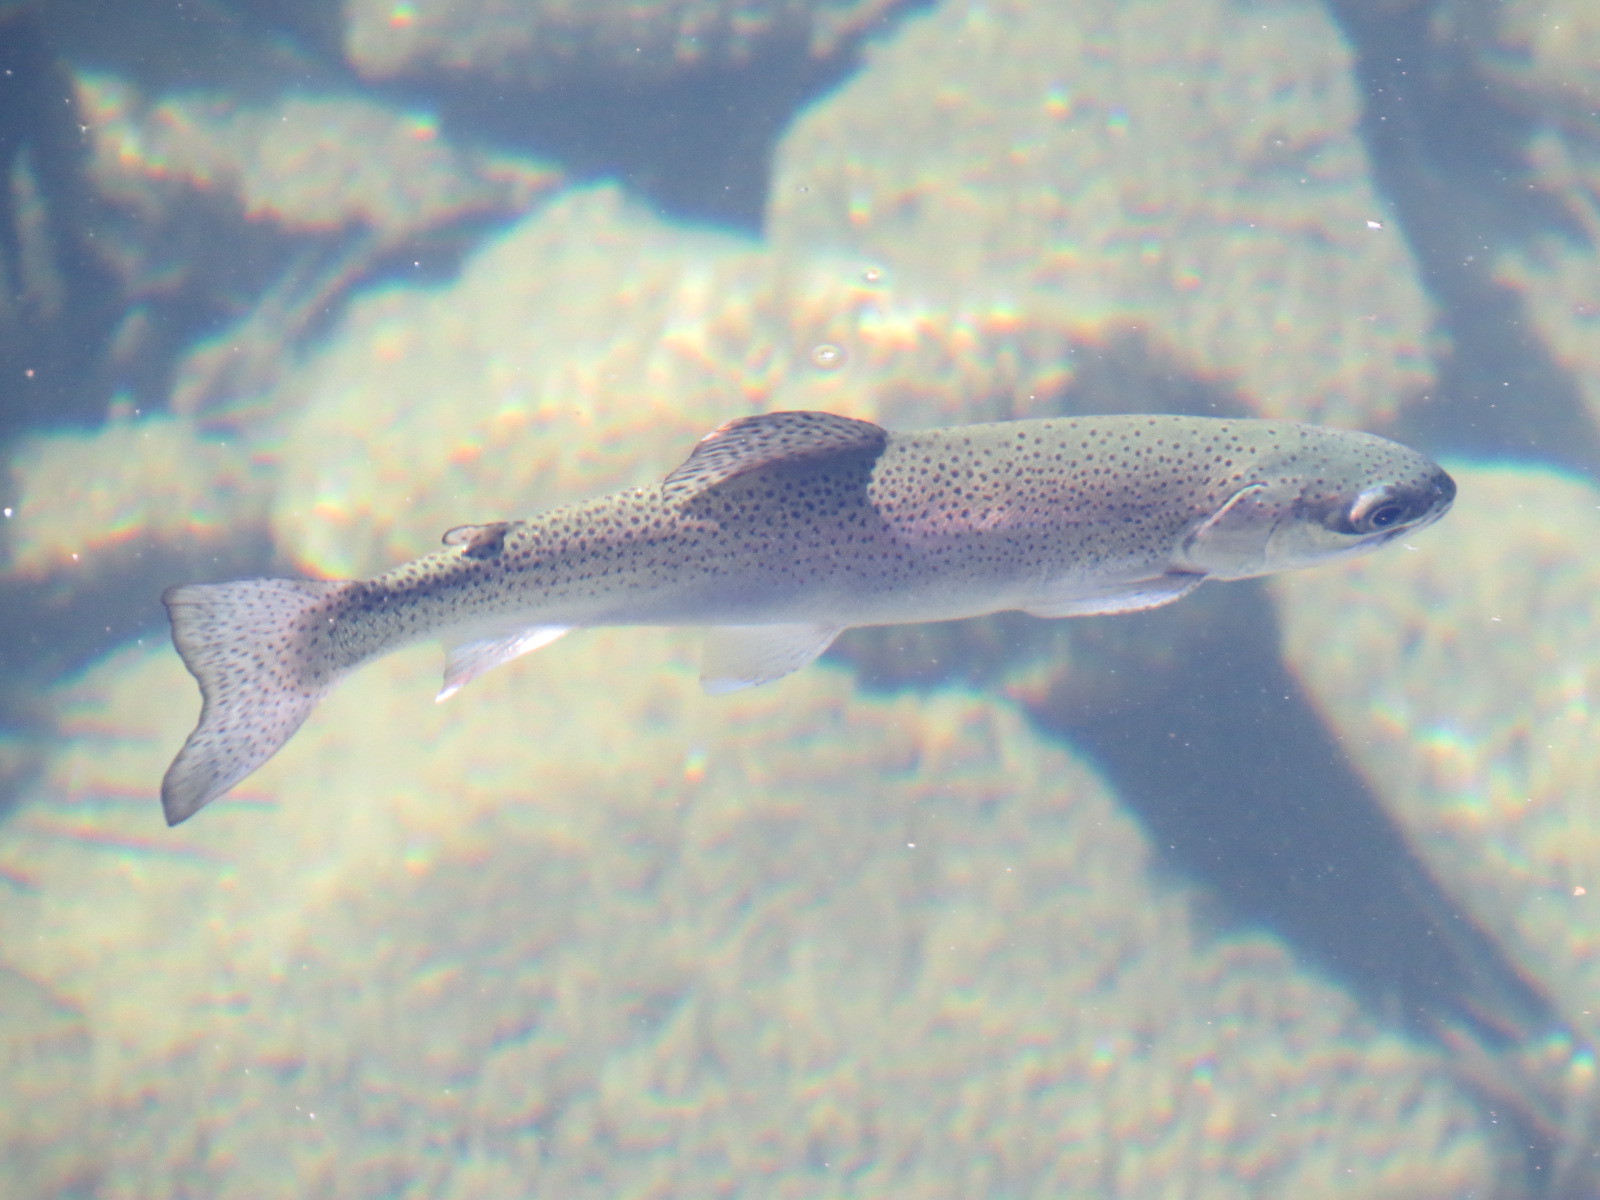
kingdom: Animalia
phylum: Chordata
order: Salmoniformes
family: Salmonidae
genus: Oncorhynchus
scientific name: Oncorhynchus mykiss
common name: Rainbow trout
